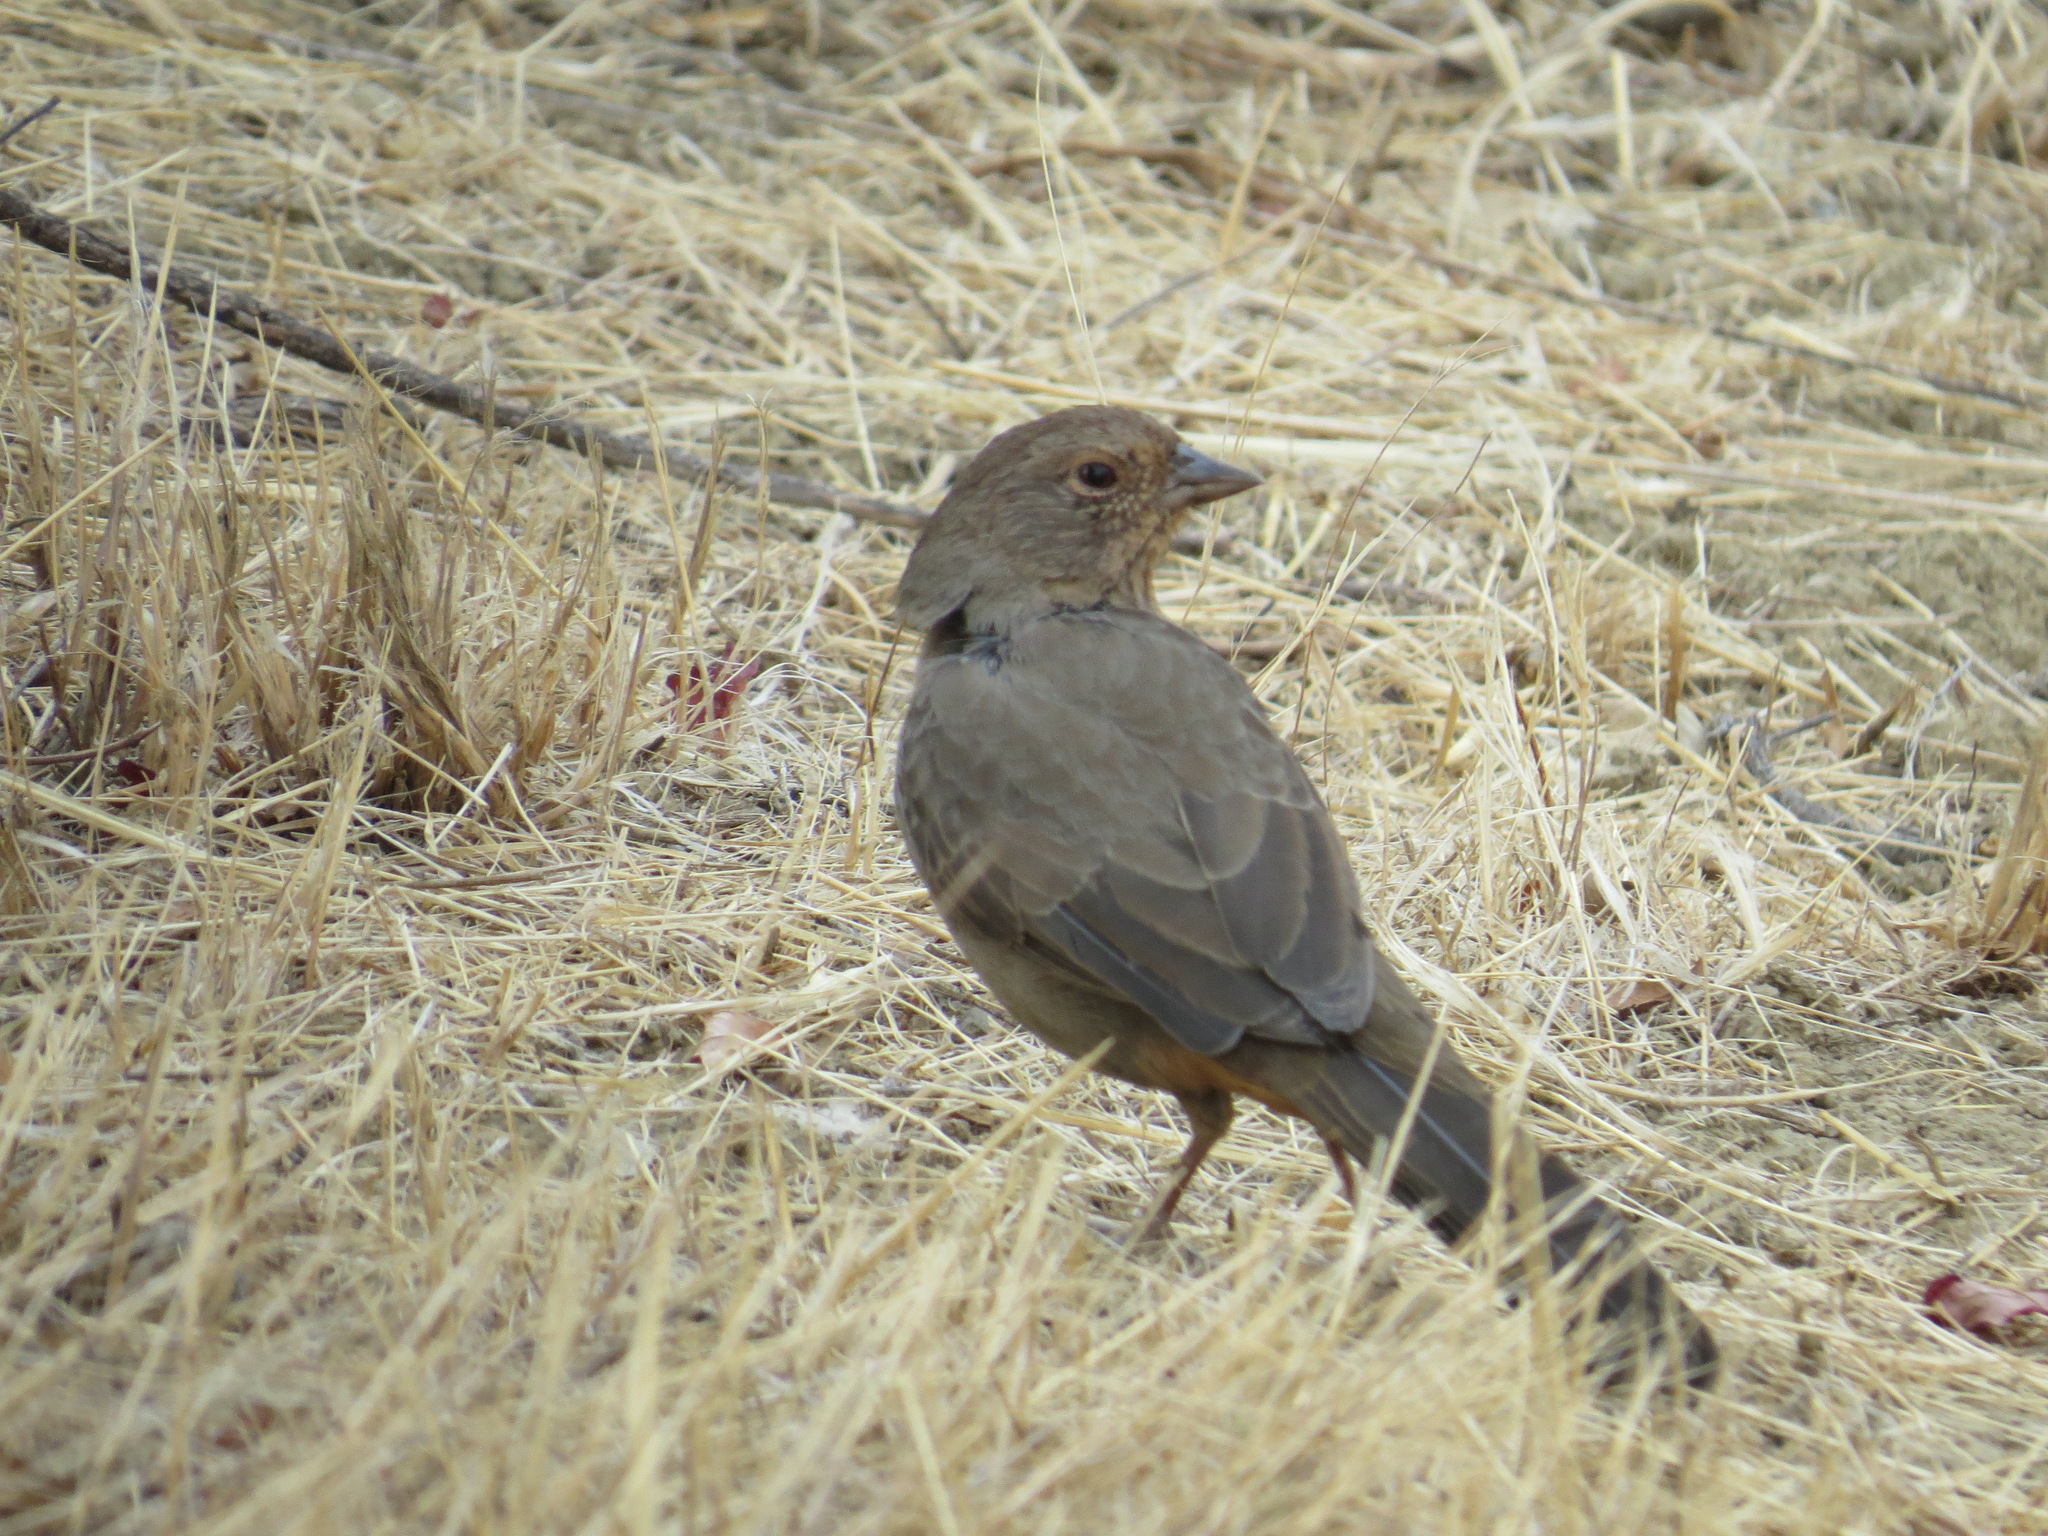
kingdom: Animalia
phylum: Chordata
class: Aves
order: Passeriformes
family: Passerellidae
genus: Melozone
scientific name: Melozone crissalis
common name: California towhee
